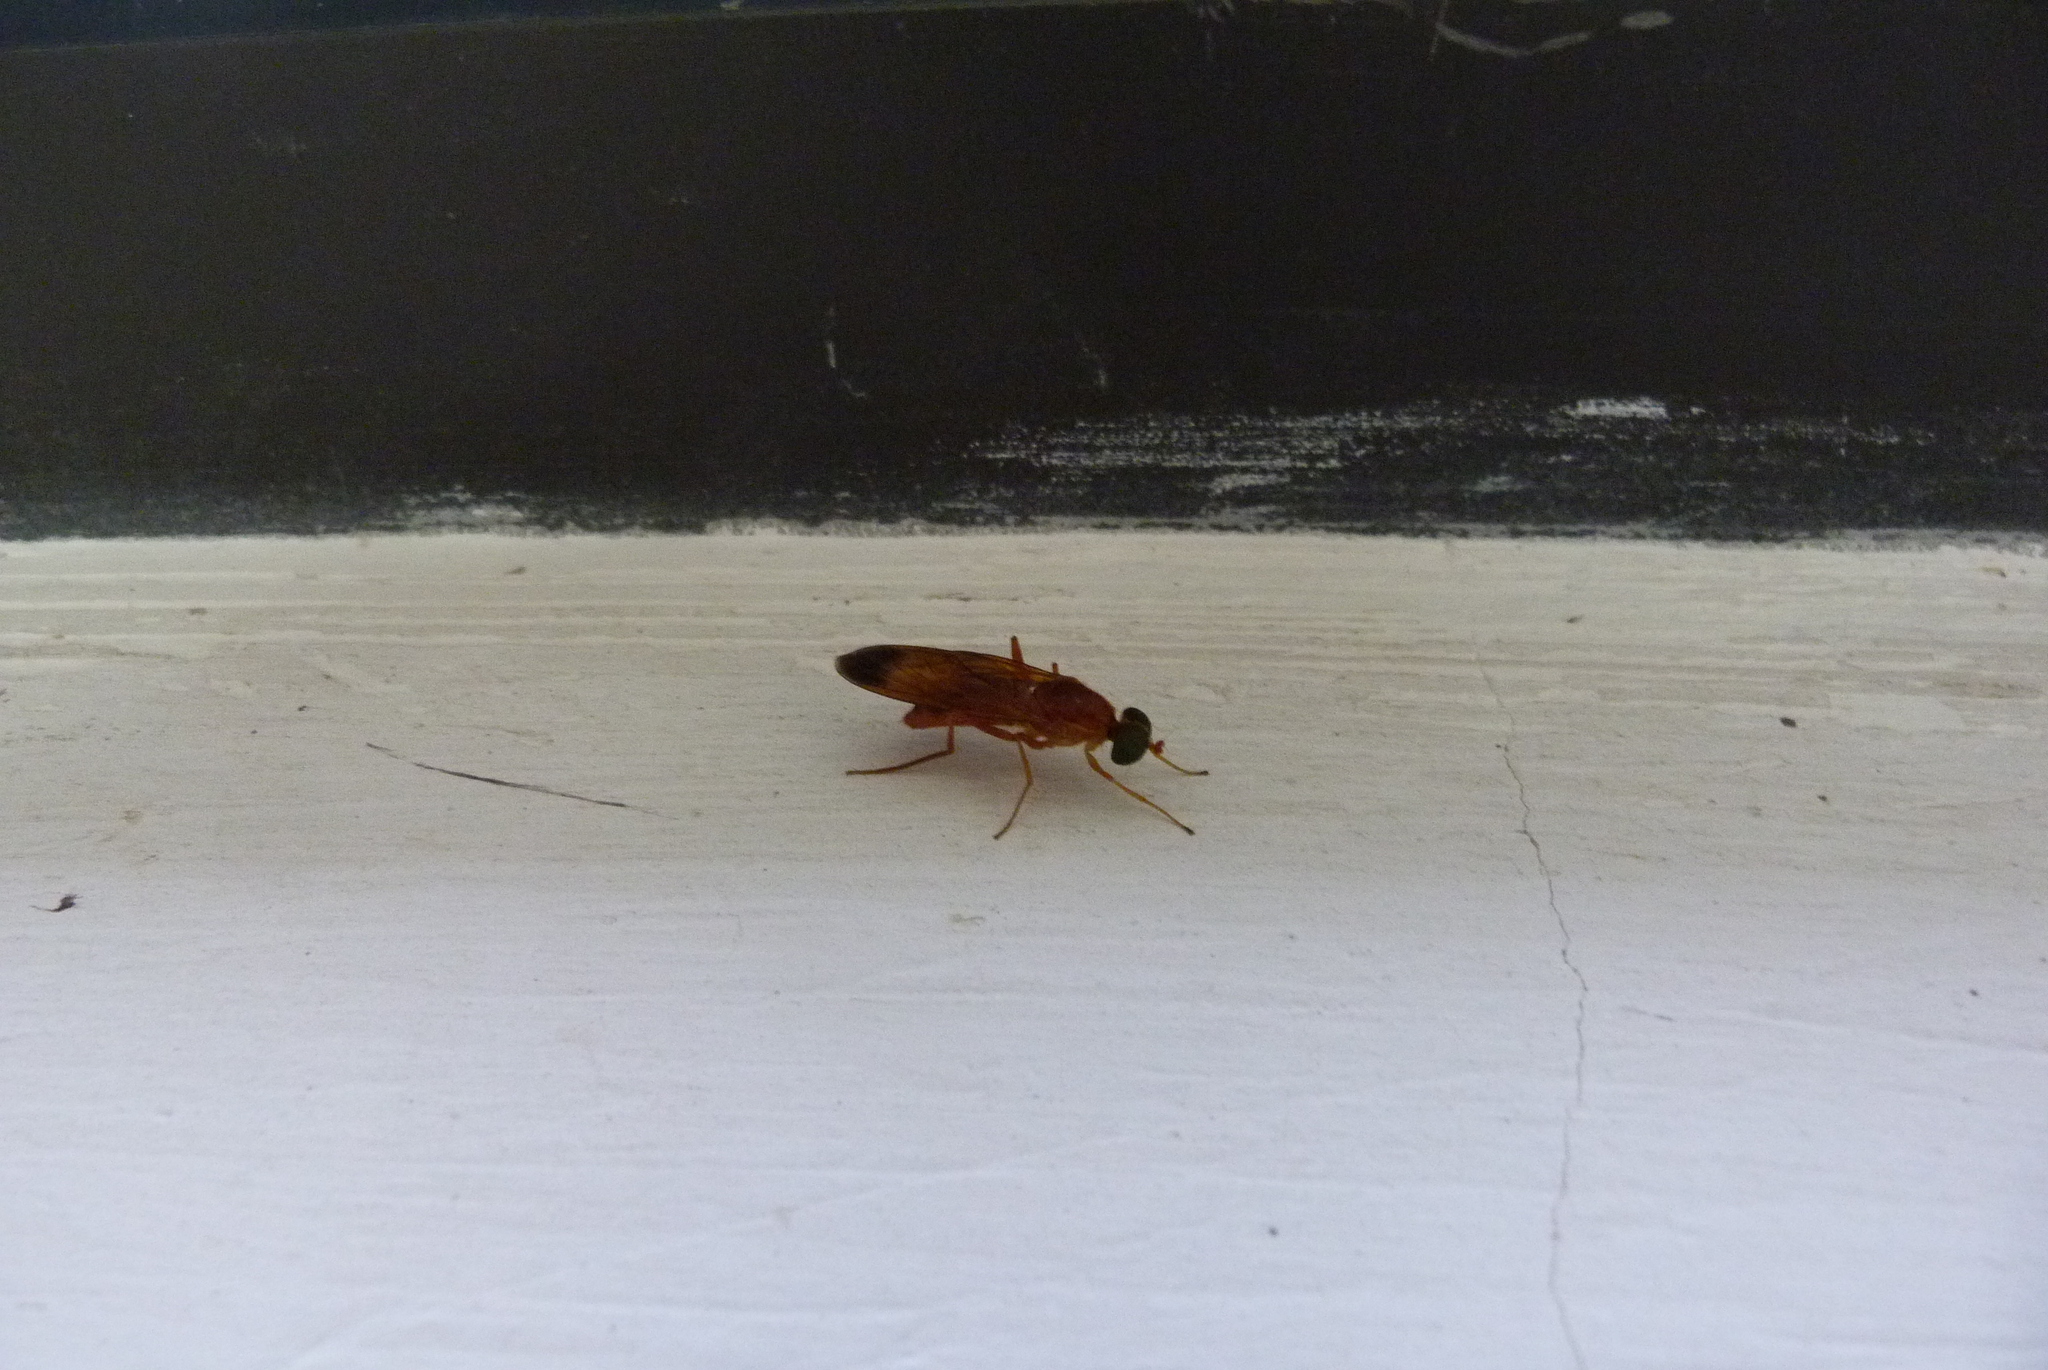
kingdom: Animalia
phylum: Arthropoda
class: Insecta
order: Diptera
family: Stratiomyidae
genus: Ptecticus
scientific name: Ptecticus aurifer
